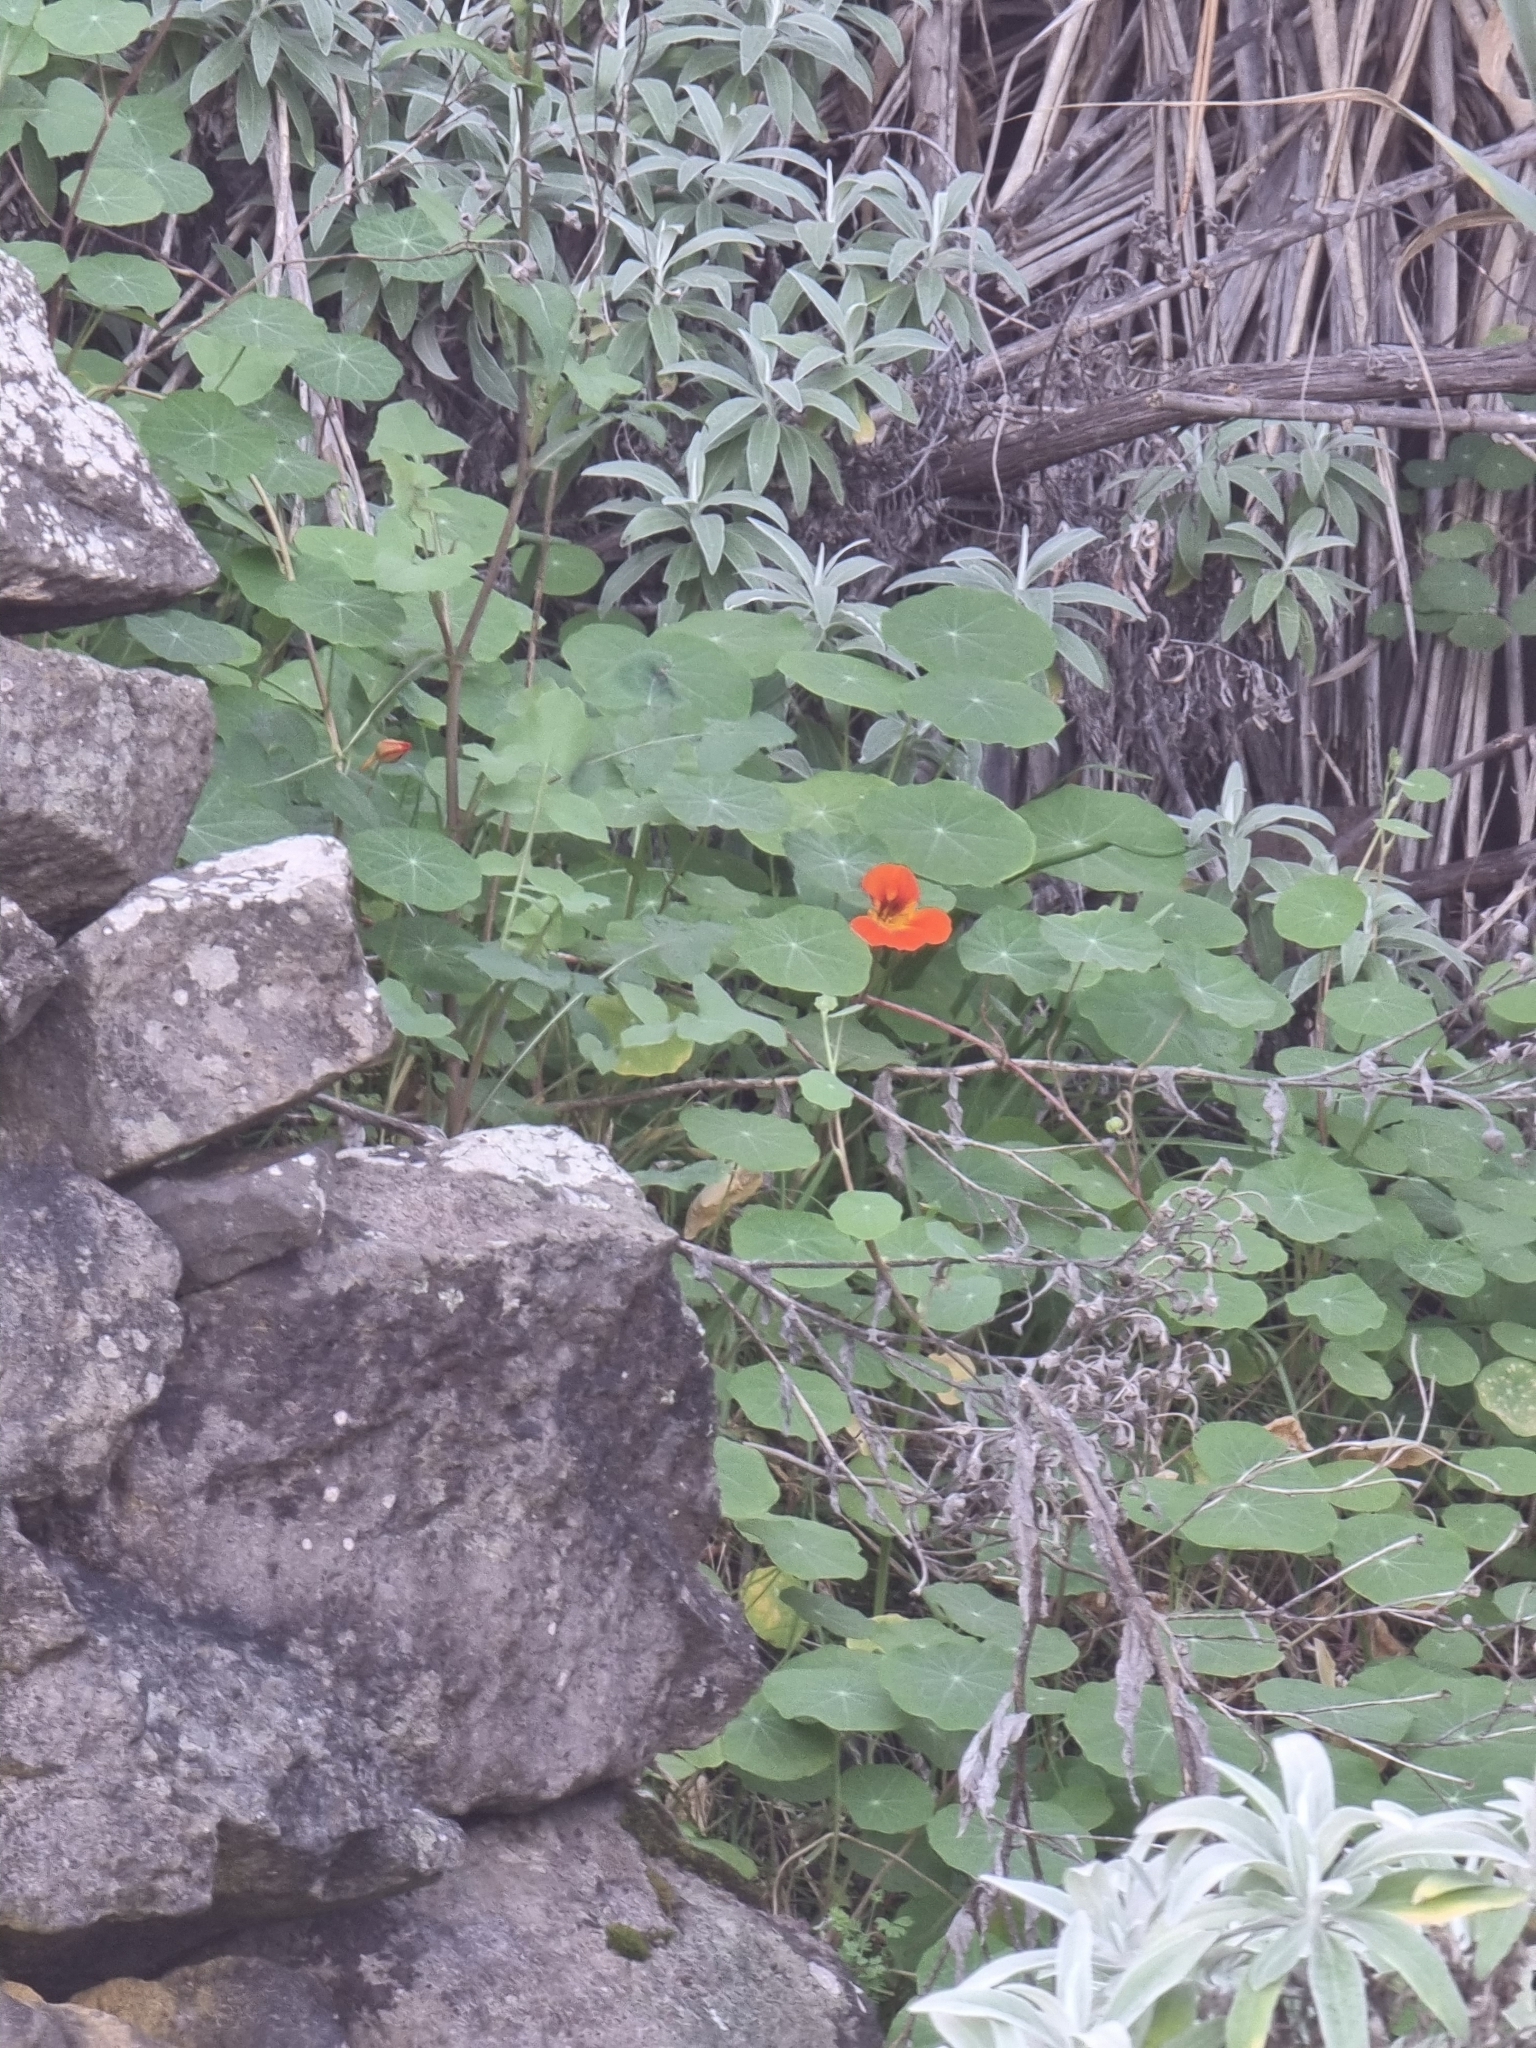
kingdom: Plantae
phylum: Tracheophyta
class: Magnoliopsida
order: Brassicales
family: Tropaeolaceae
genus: Tropaeolum
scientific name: Tropaeolum majus
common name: Nasturtium
